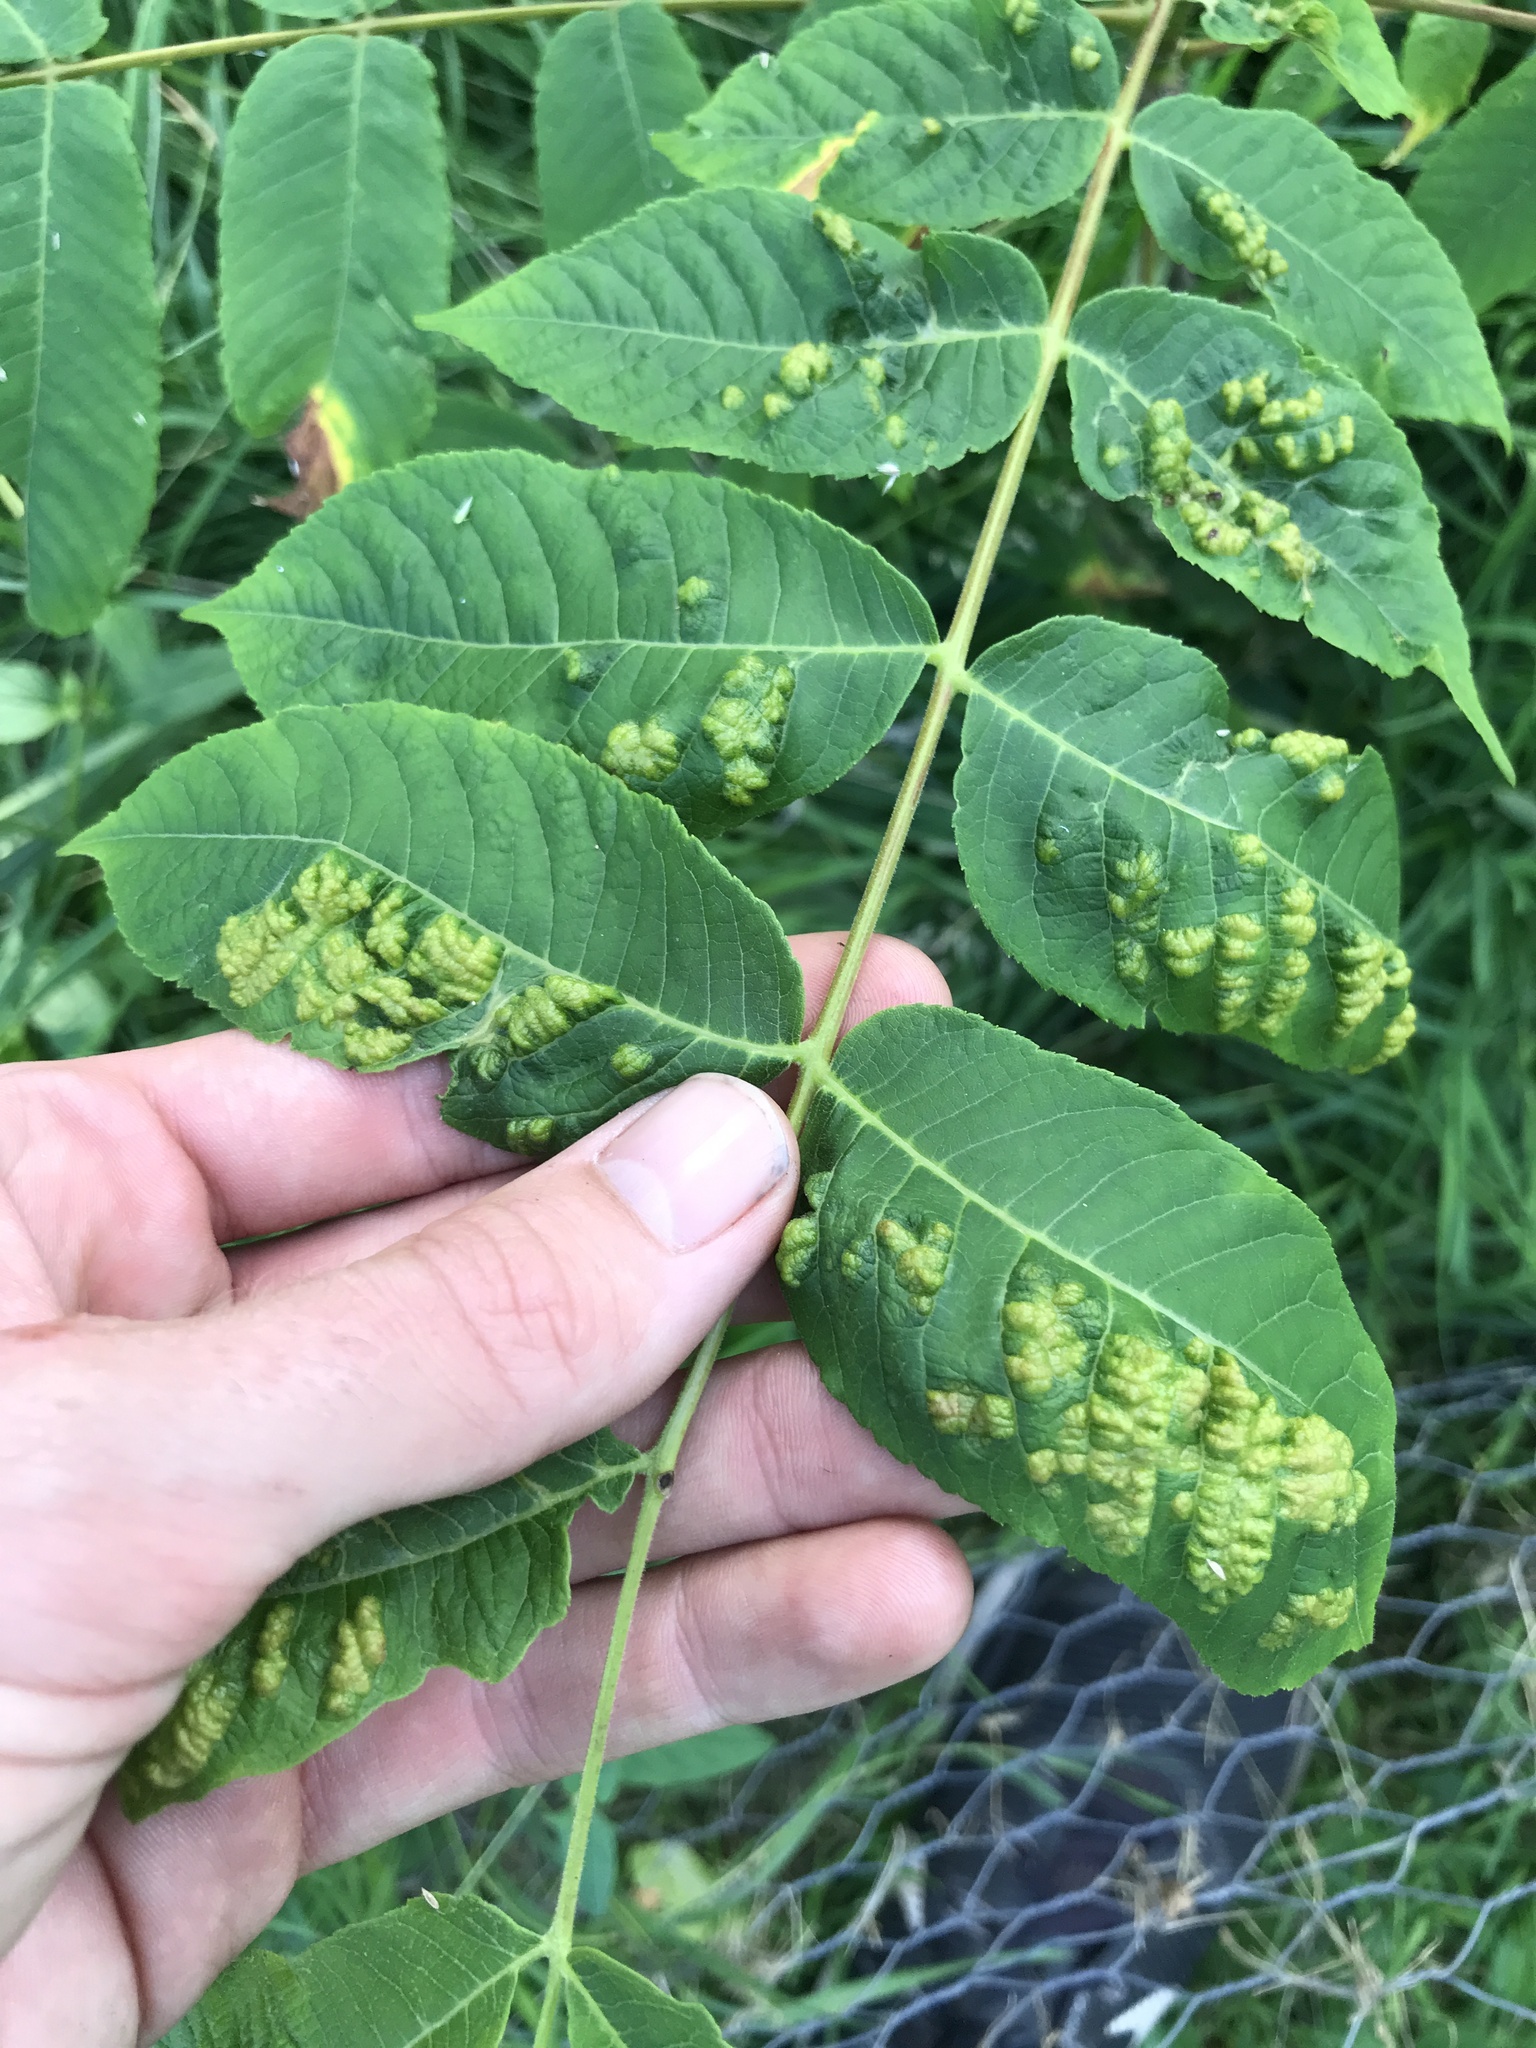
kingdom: Animalia
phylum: Arthropoda
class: Arachnida
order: Trombidiformes
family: Eriophyidae
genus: Aceria
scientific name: Aceria
